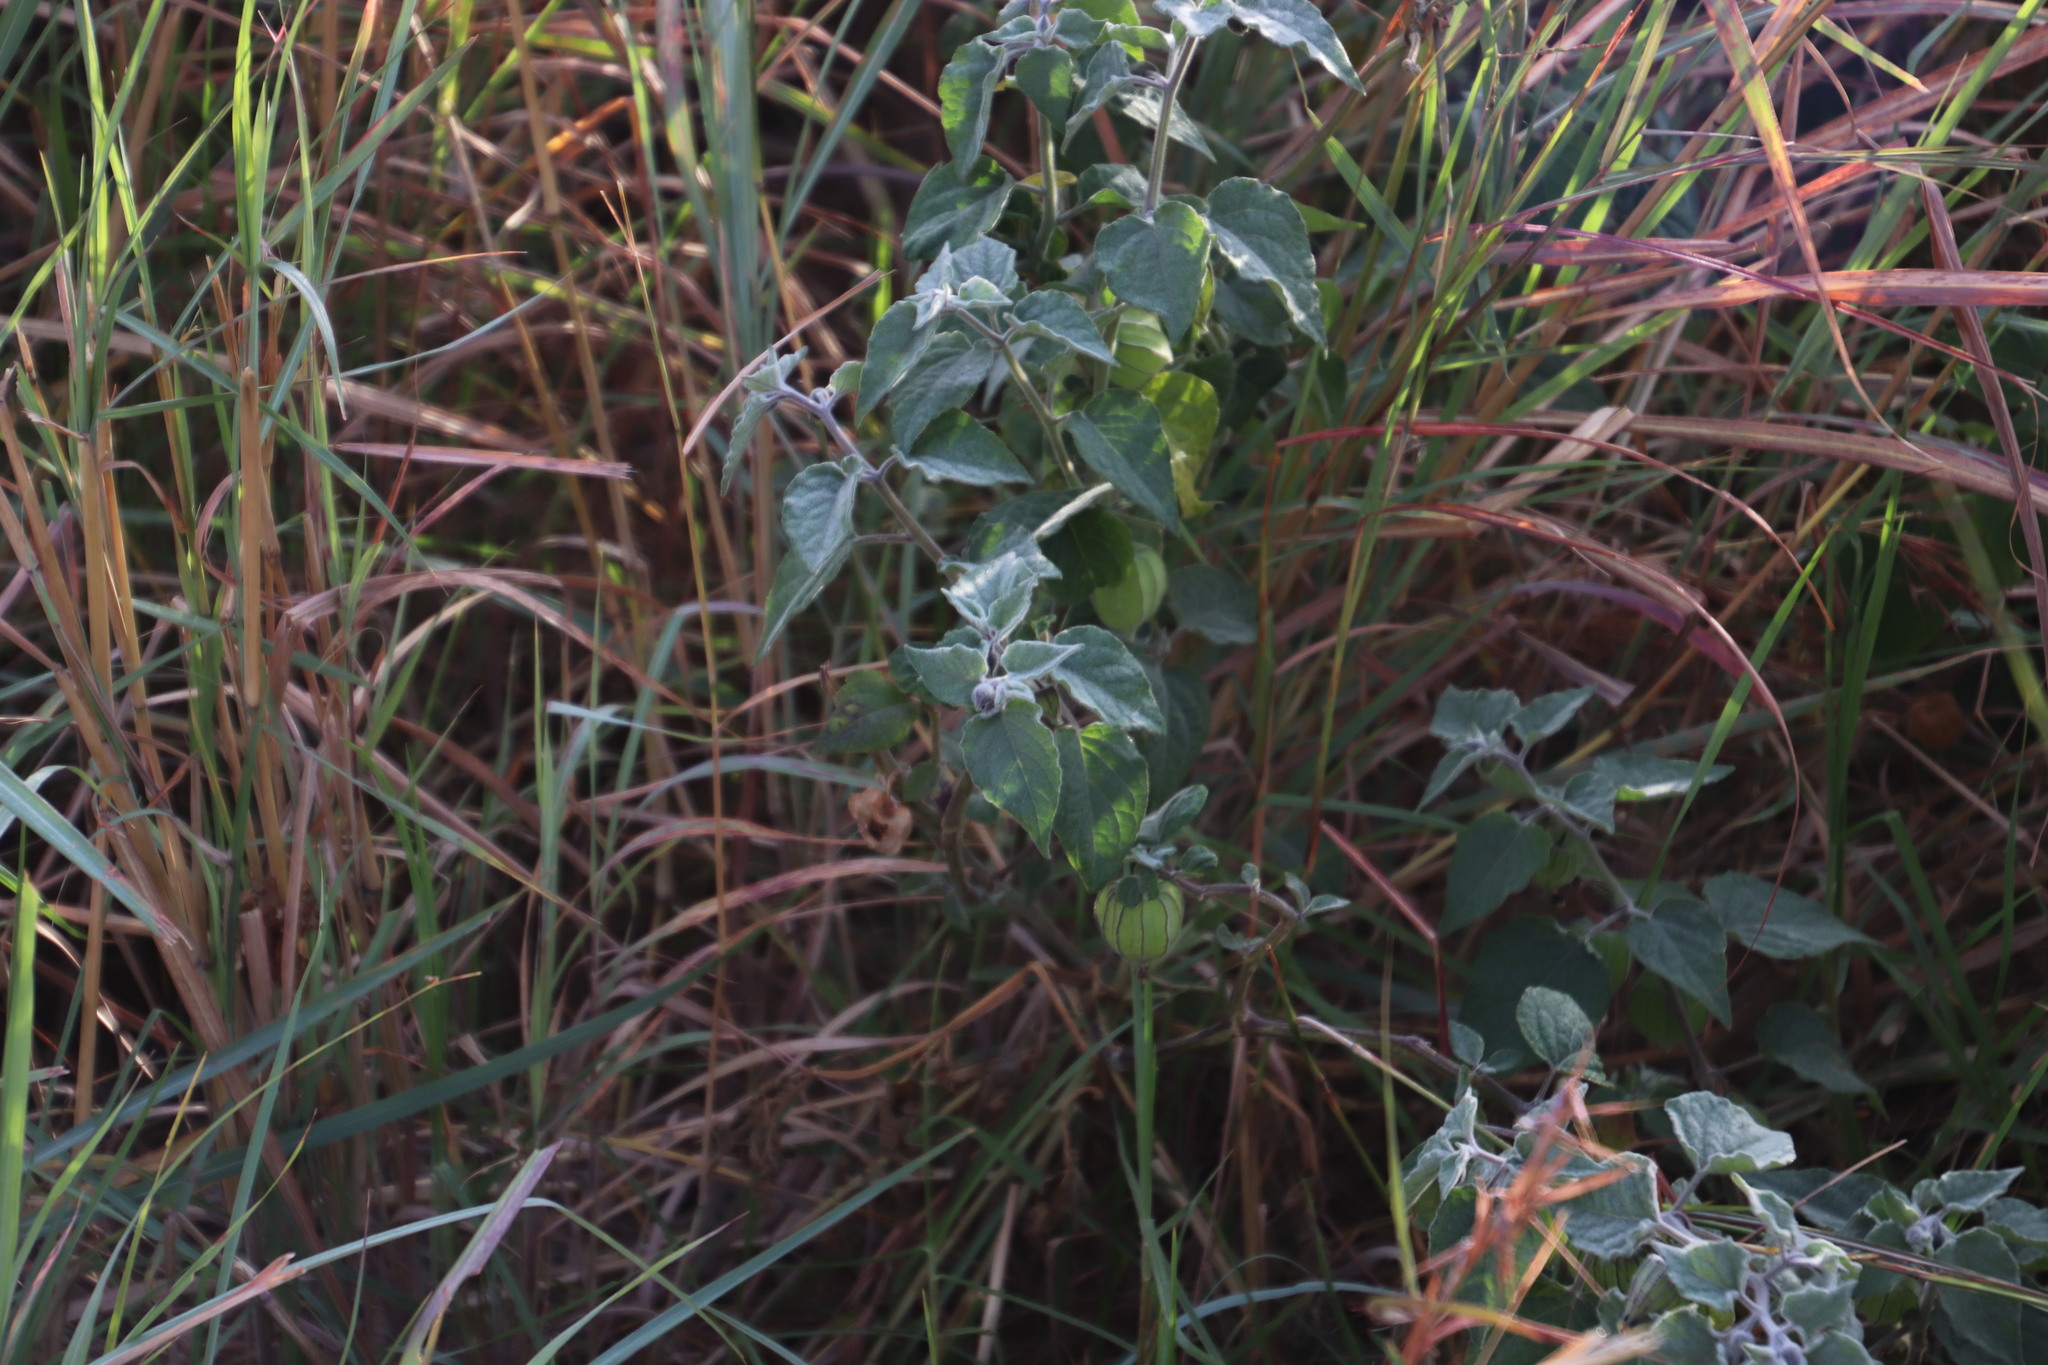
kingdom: Plantae
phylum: Tracheophyta
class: Magnoliopsida
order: Solanales
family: Solanaceae
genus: Physalis
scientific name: Physalis peruviana
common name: Cape-gooseberry
